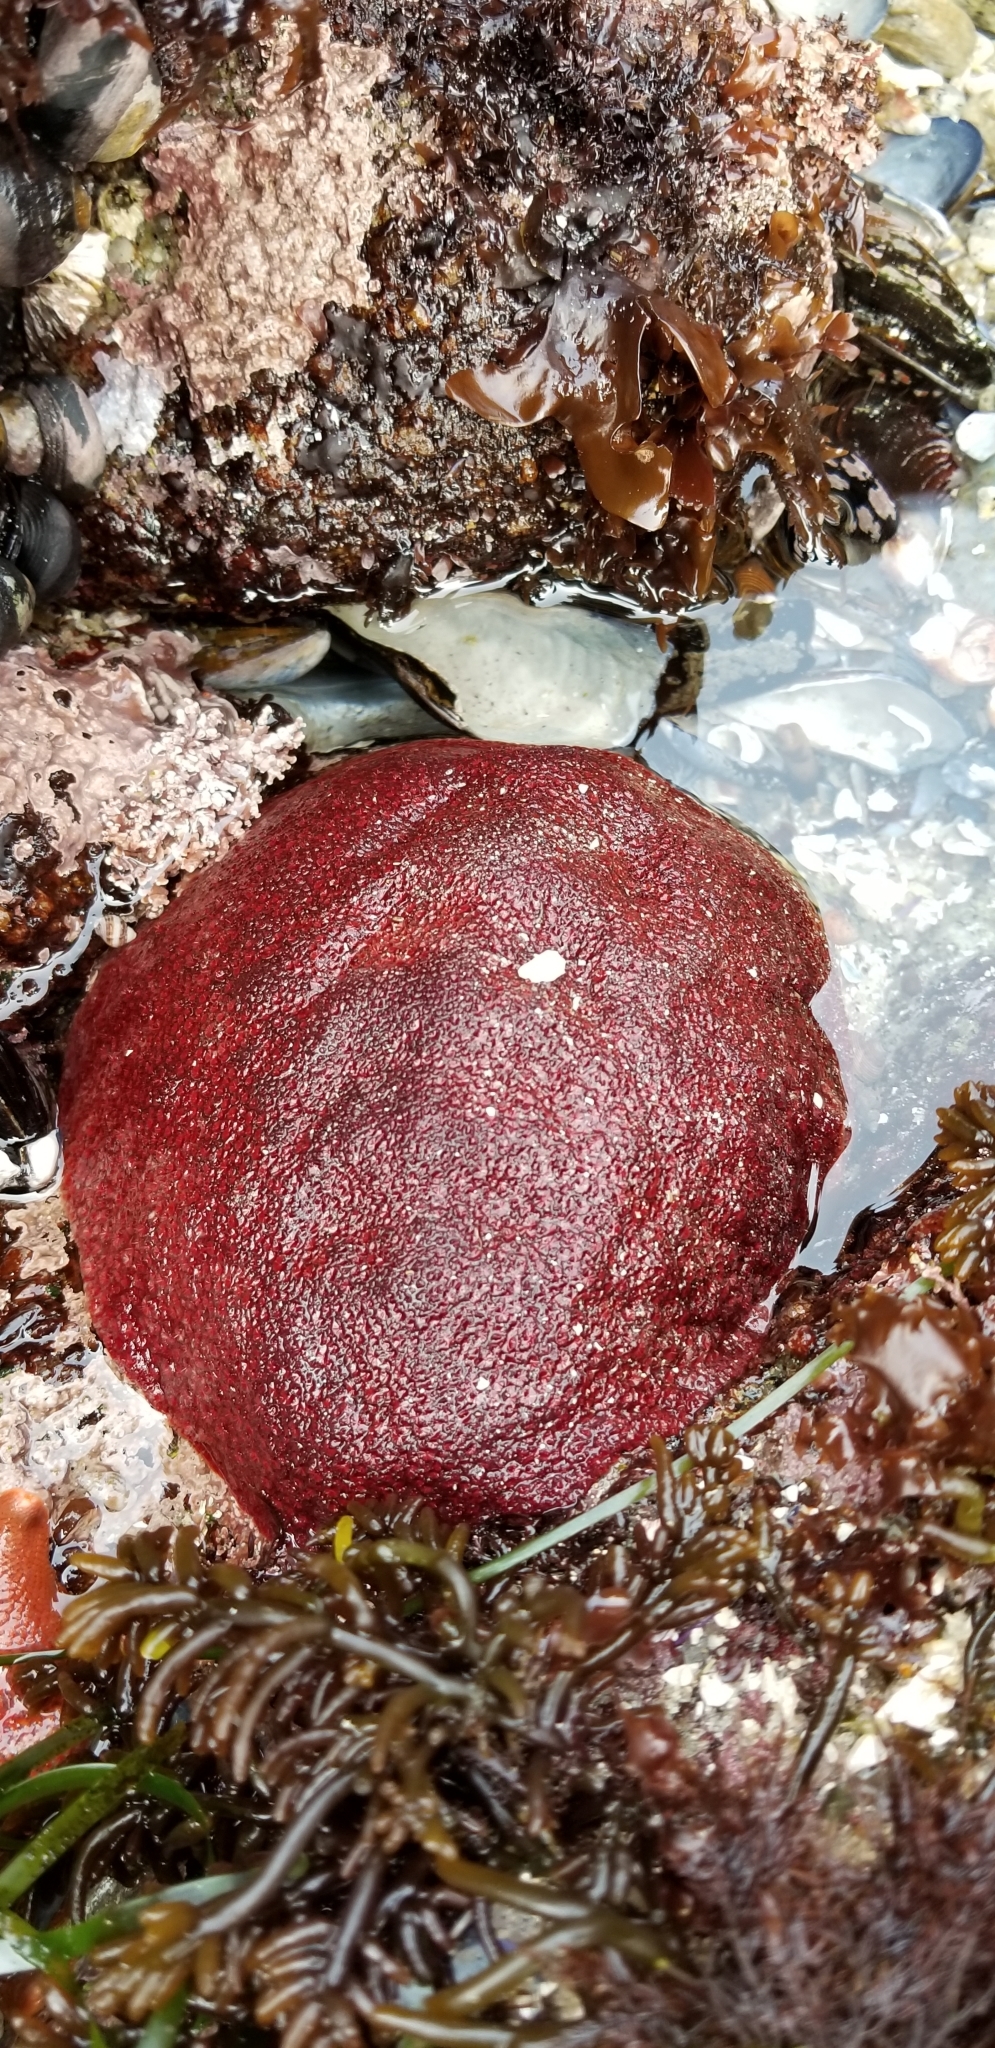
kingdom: Animalia
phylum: Mollusca
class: Polyplacophora
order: Chitonida
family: Acanthochitonidae
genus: Cryptochiton
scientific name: Cryptochiton stelleri
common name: Giant pacific chiton
